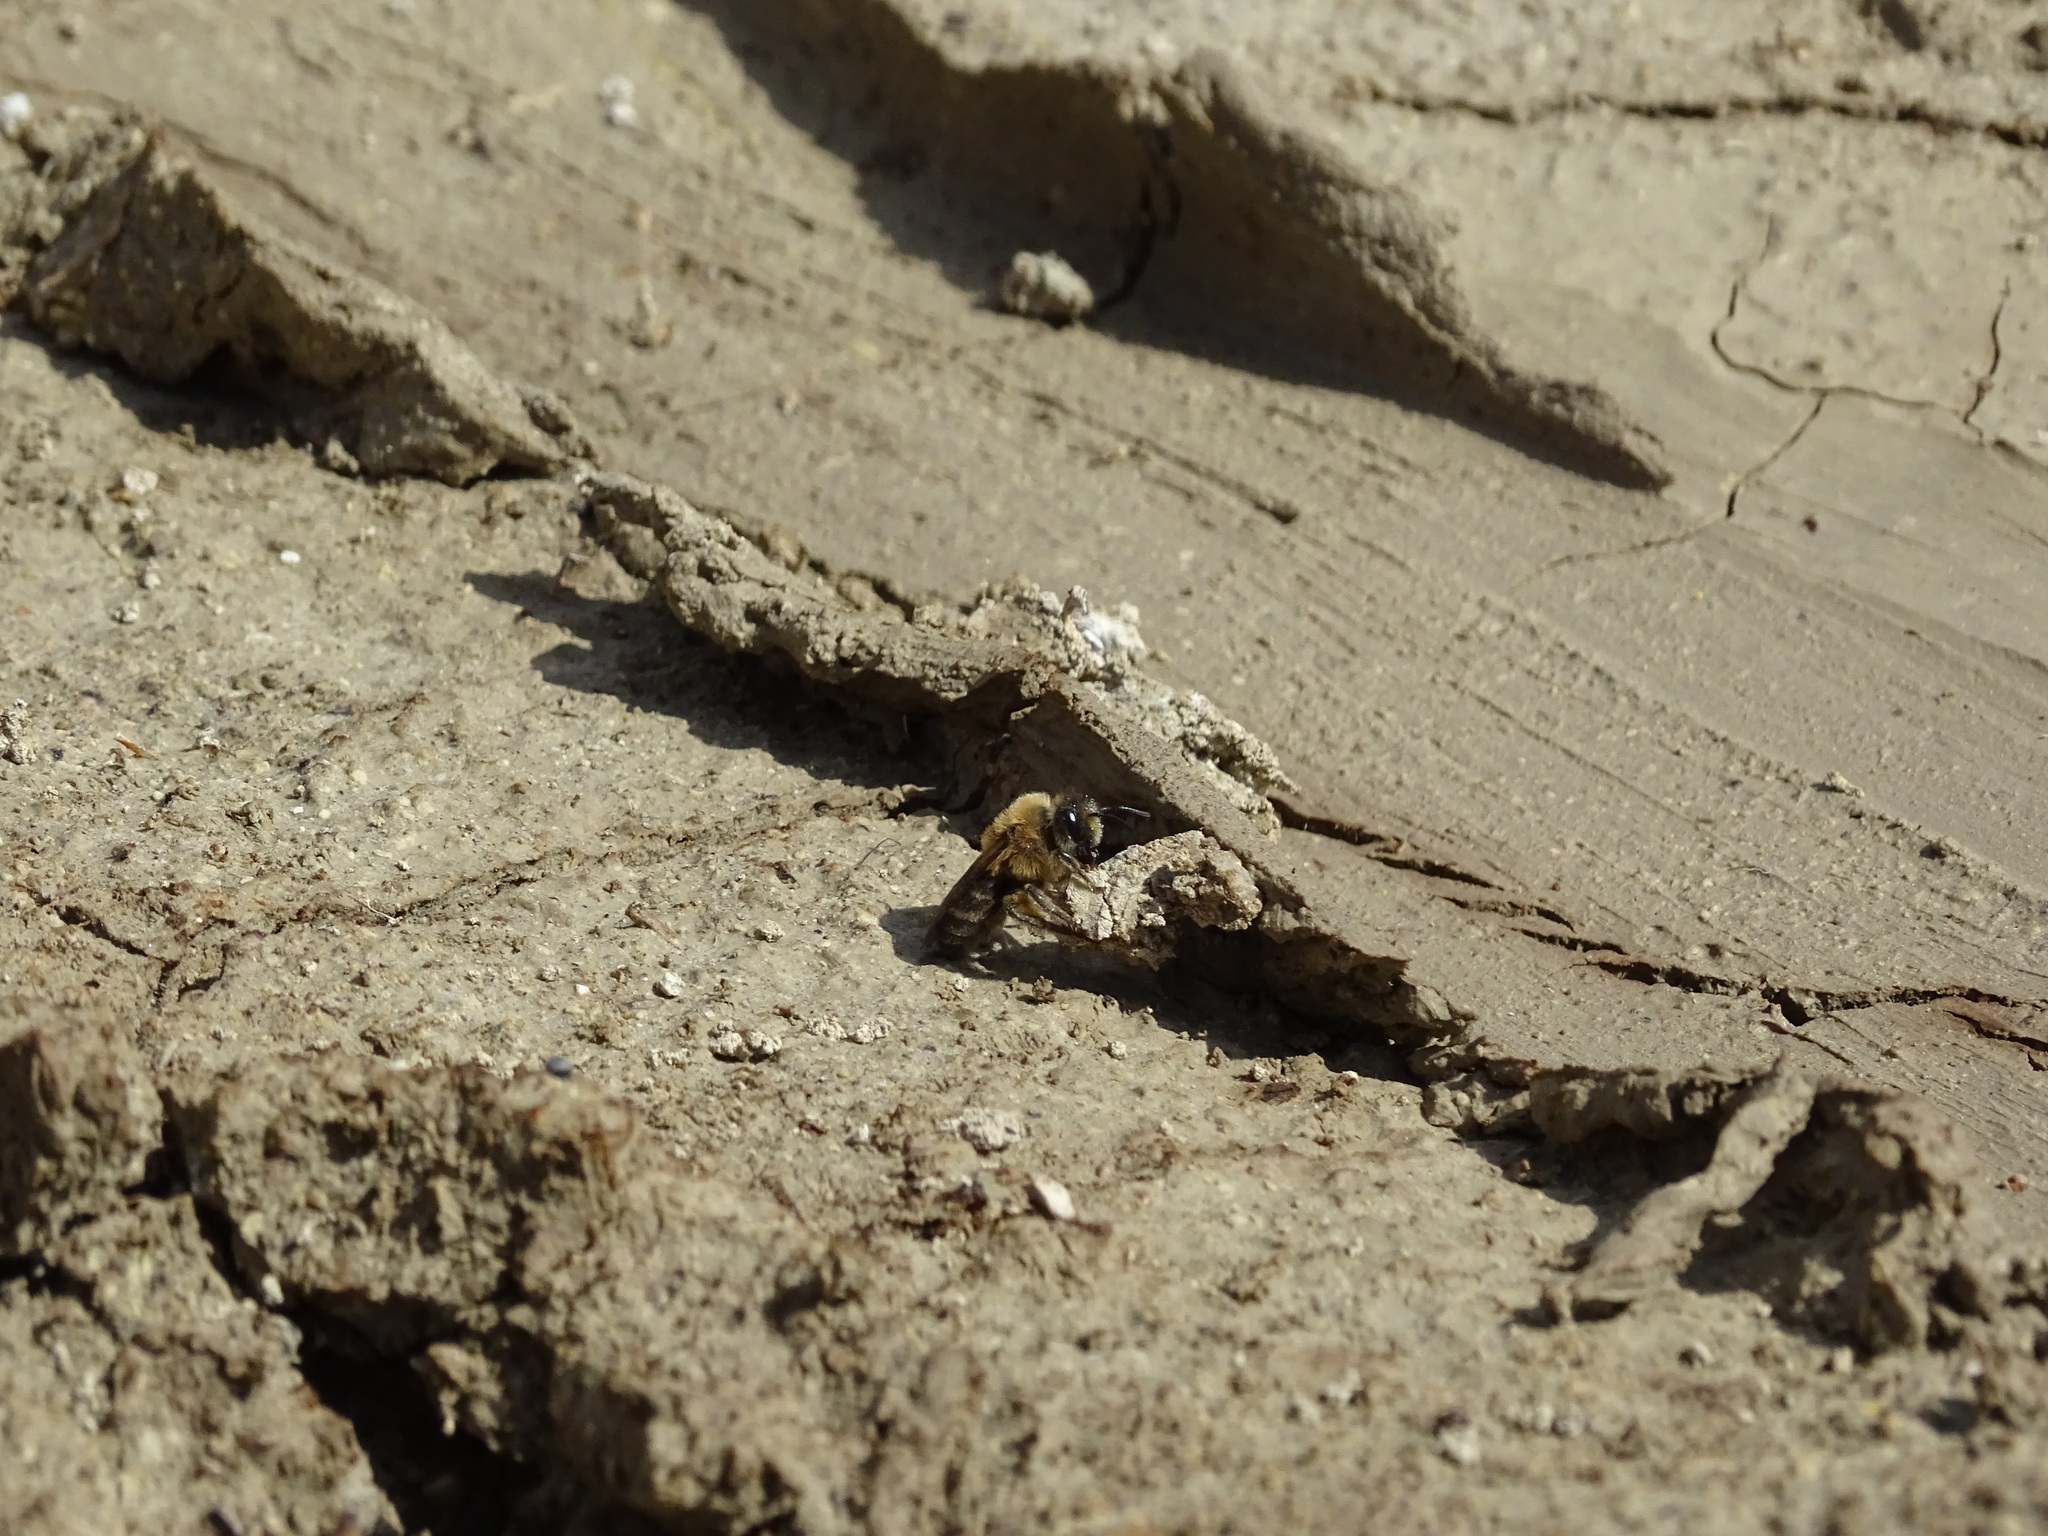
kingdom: Animalia
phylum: Arthropoda
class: Insecta
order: Hymenoptera
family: Colletidae
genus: Colletes
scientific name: Colletes cunicularius
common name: Early colletes
